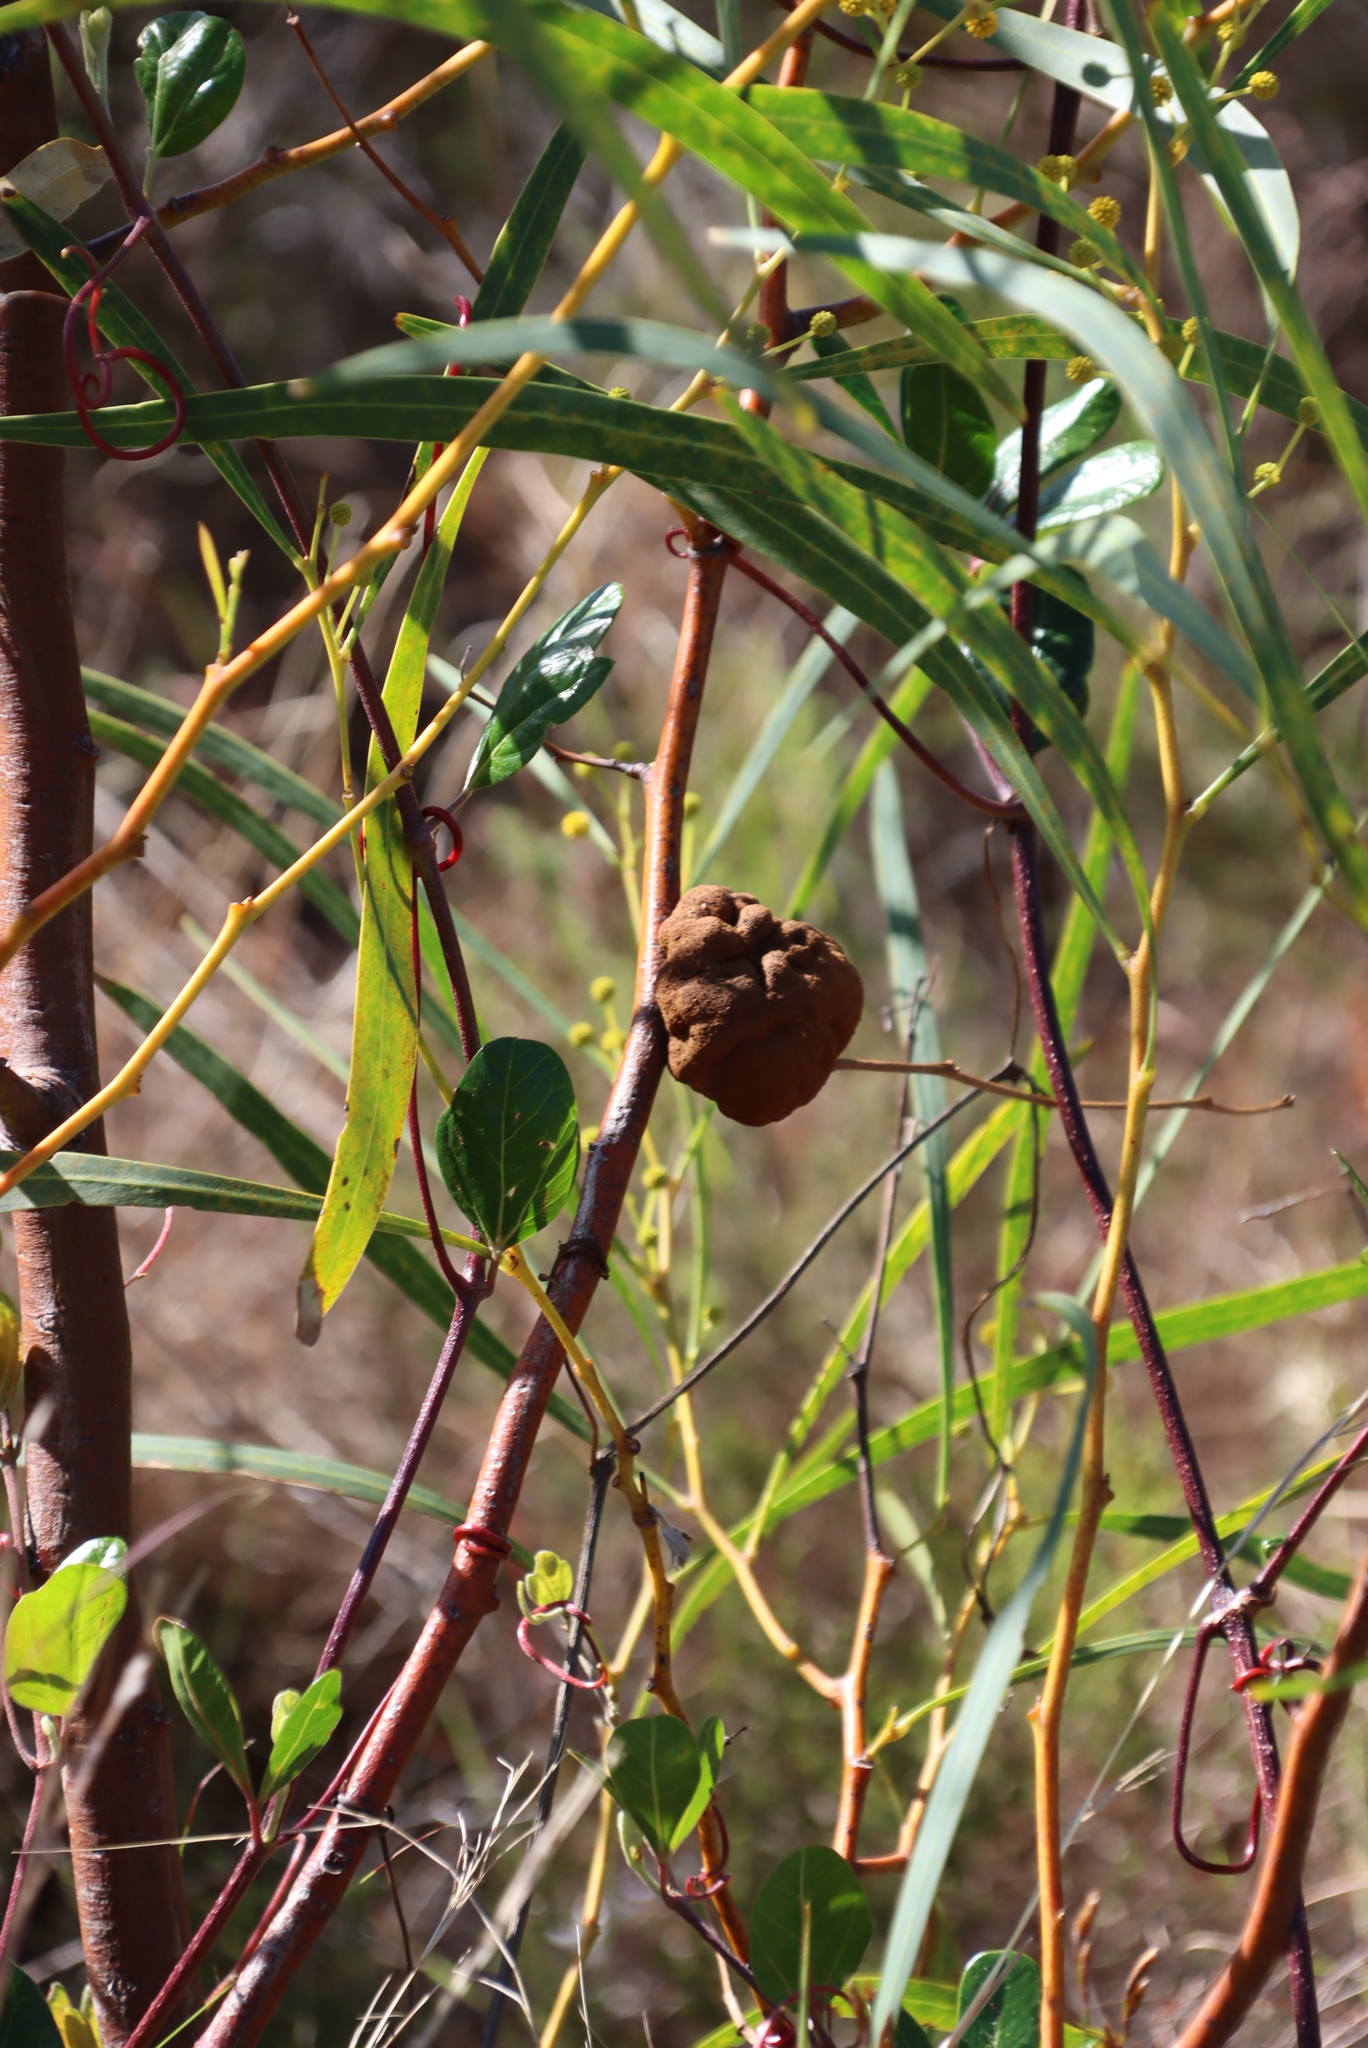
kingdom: Plantae
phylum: Tracheophyta
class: Magnoliopsida
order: Fabales
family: Fabaceae
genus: Acacia
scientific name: Acacia saligna
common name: Orange wattle
